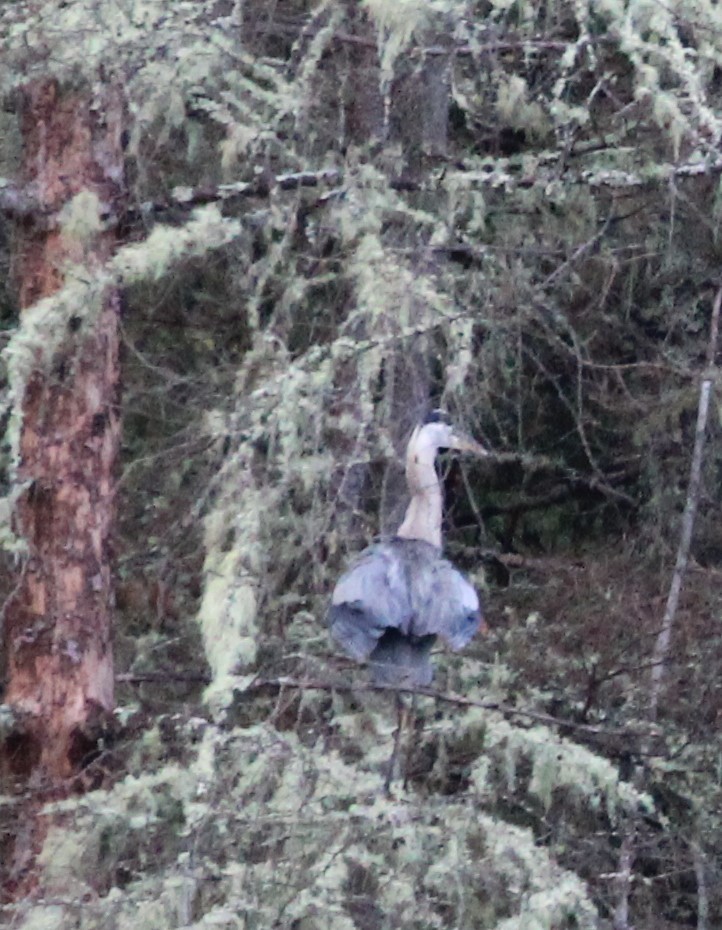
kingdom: Animalia
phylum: Chordata
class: Aves
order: Pelecaniformes
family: Ardeidae
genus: Ardea
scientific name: Ardea herodias
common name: Great blue heron
